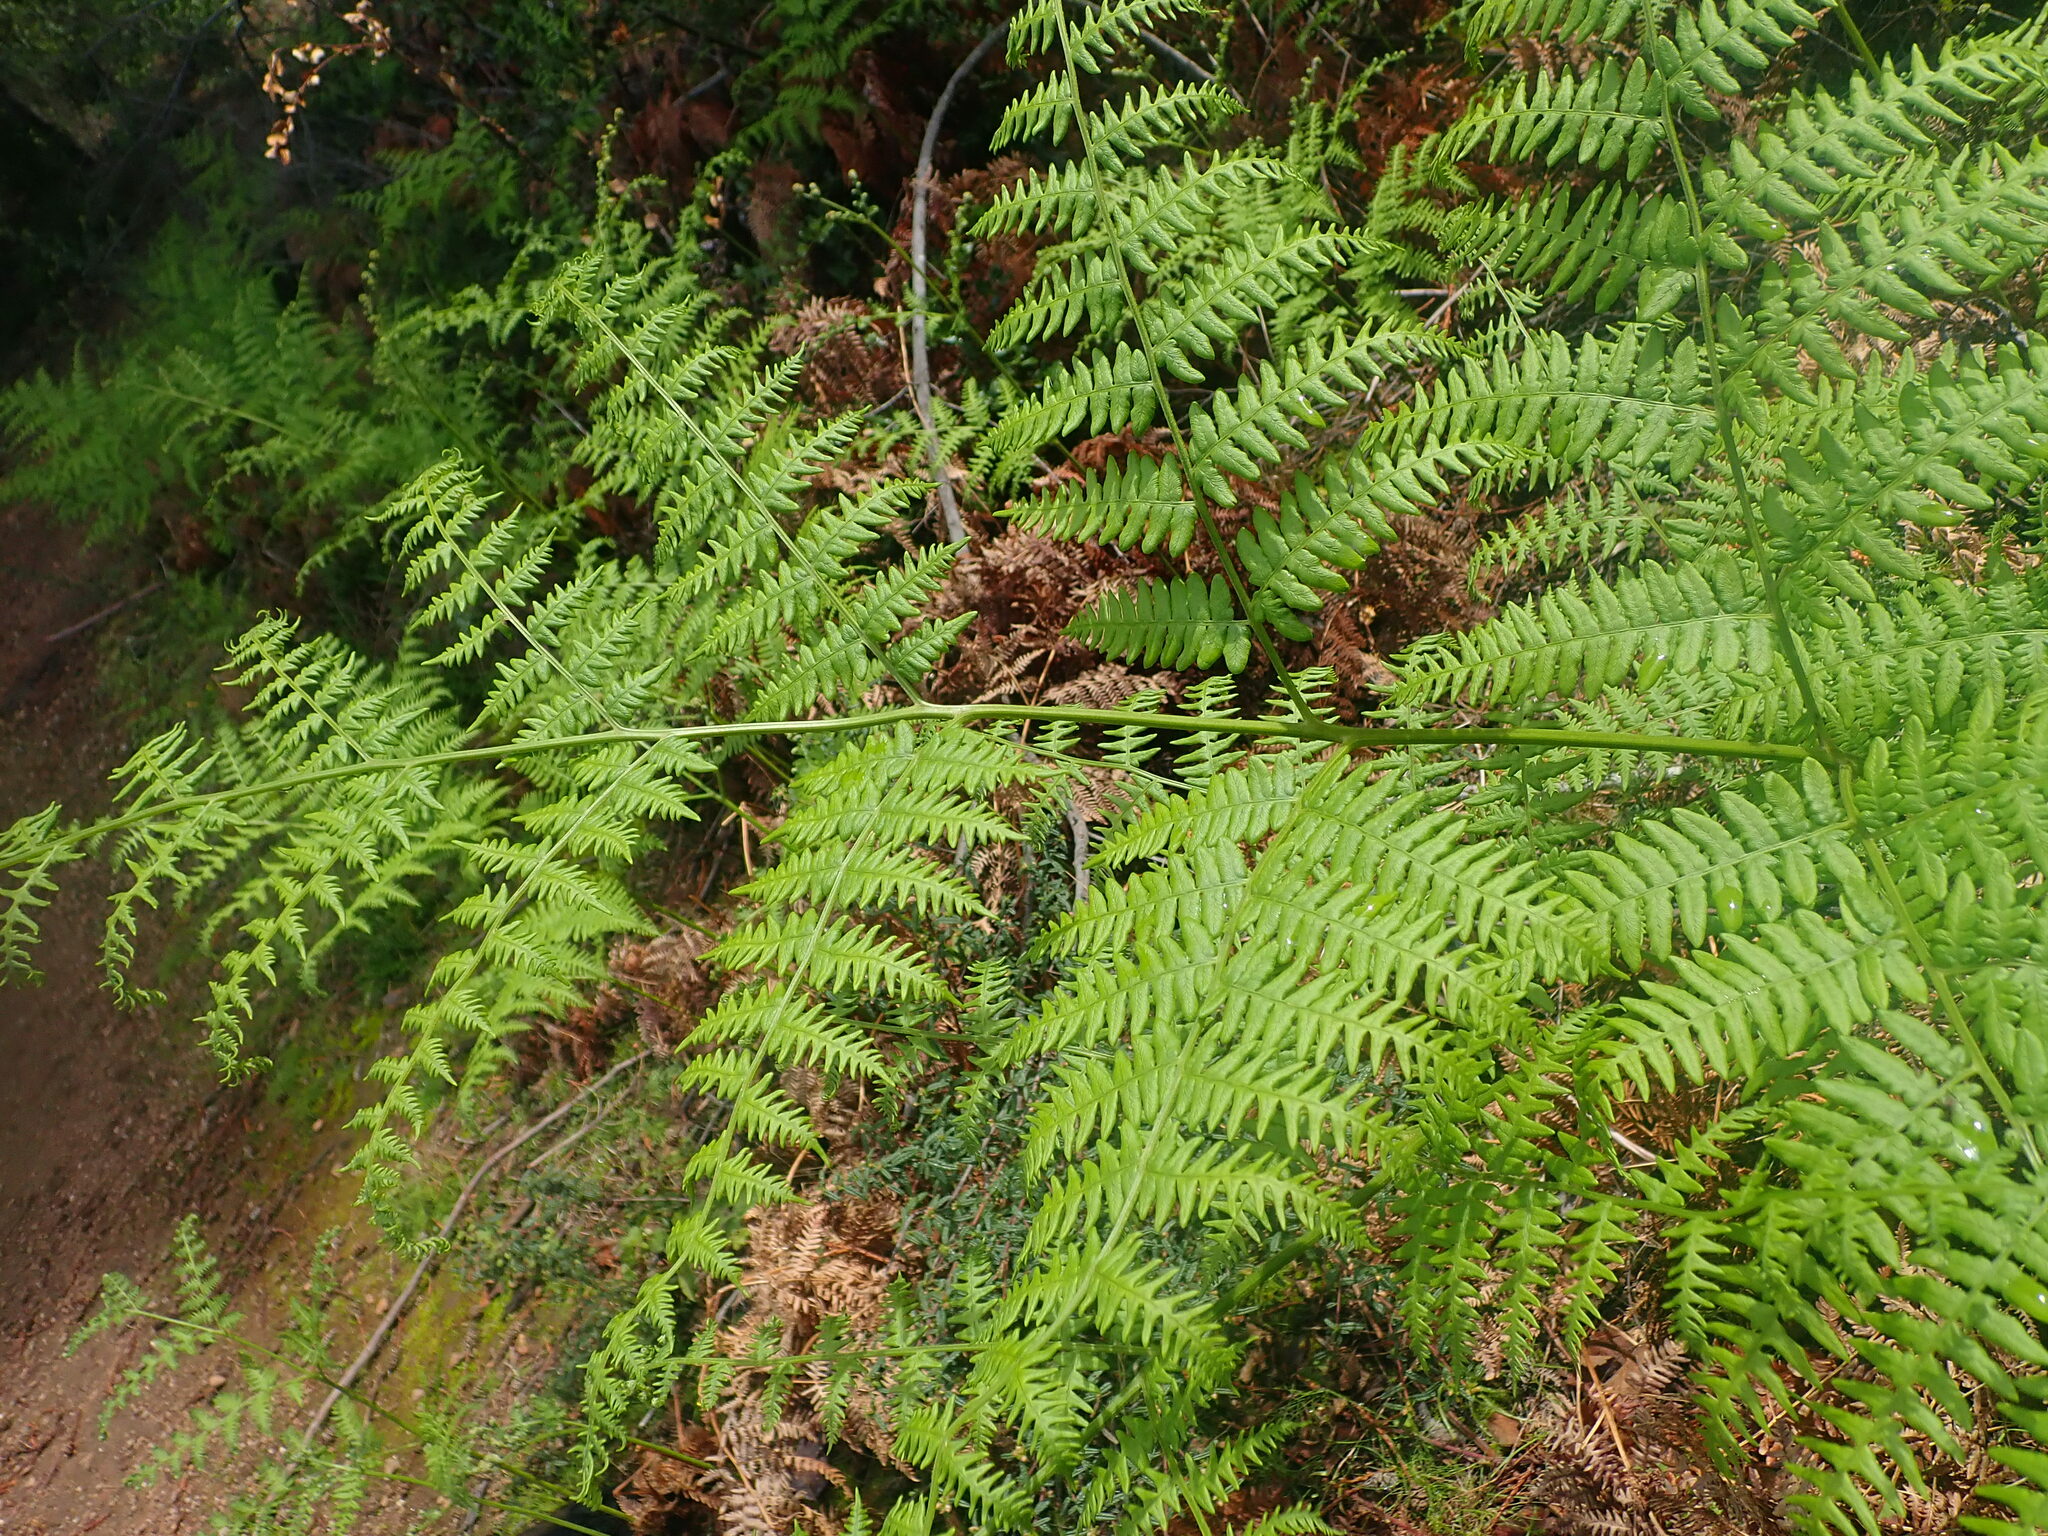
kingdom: Plantae
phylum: Tracheophyta
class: Polypodiopsida
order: Polypodiales
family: Dennstaedtiaceae
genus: Pteridium
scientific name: Pteridium aquilinum
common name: Bracken
